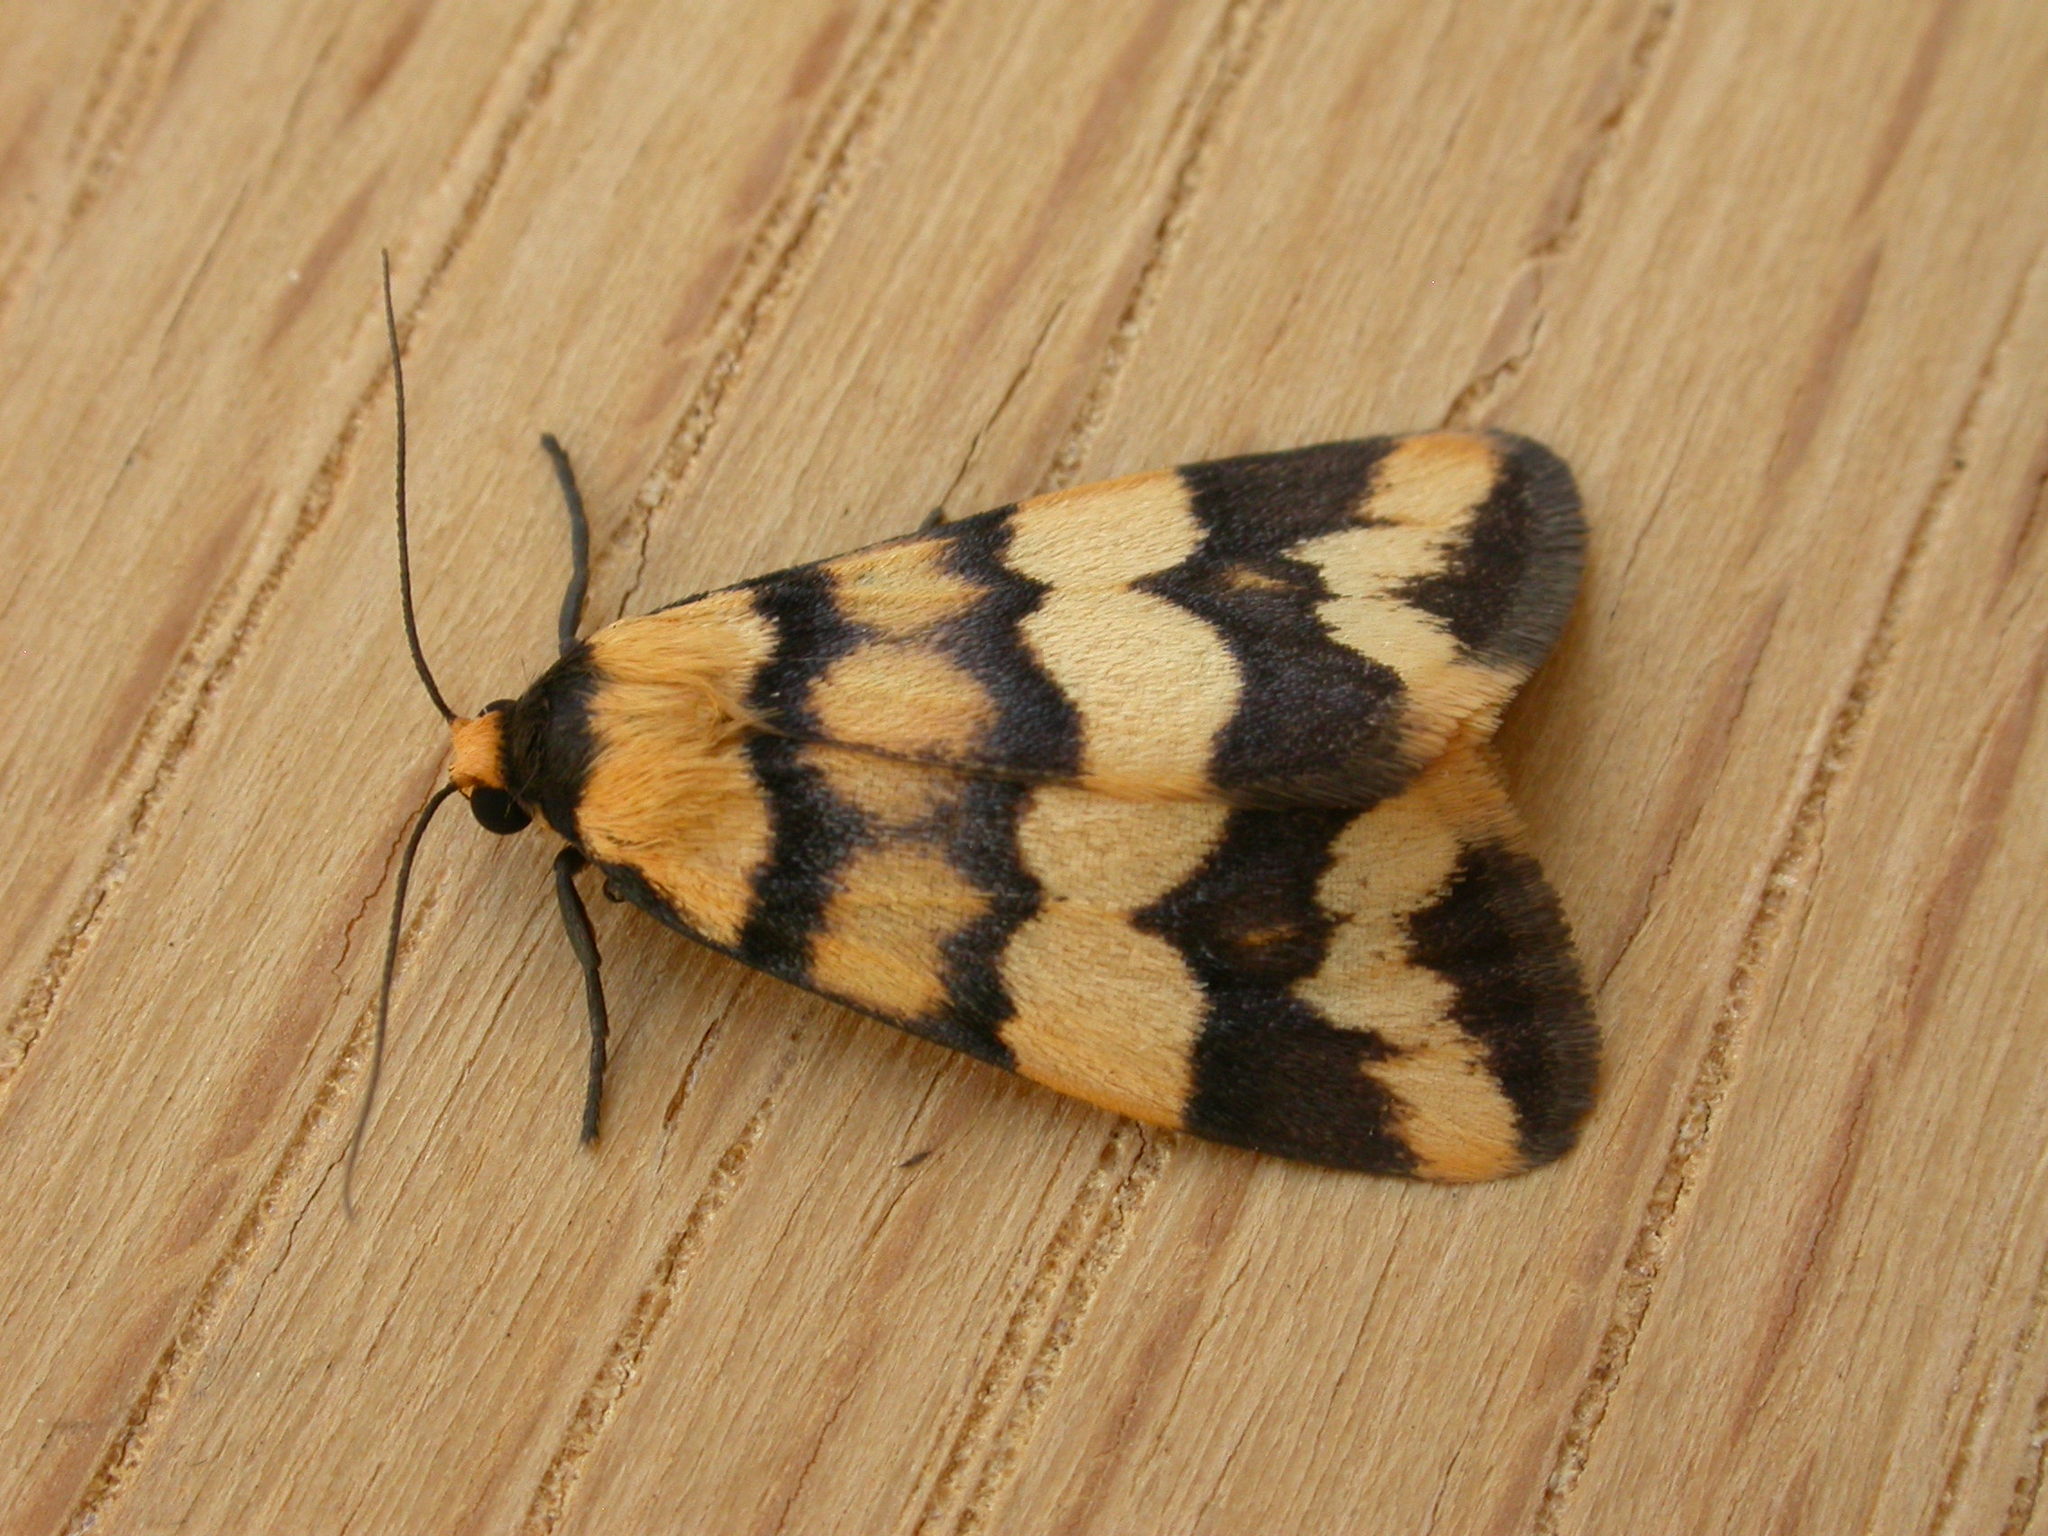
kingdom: Animalia
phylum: Arthropoda
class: Insecta
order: Lepidoptera
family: Erebidae
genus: Termessa
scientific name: Termessa zonophanes
